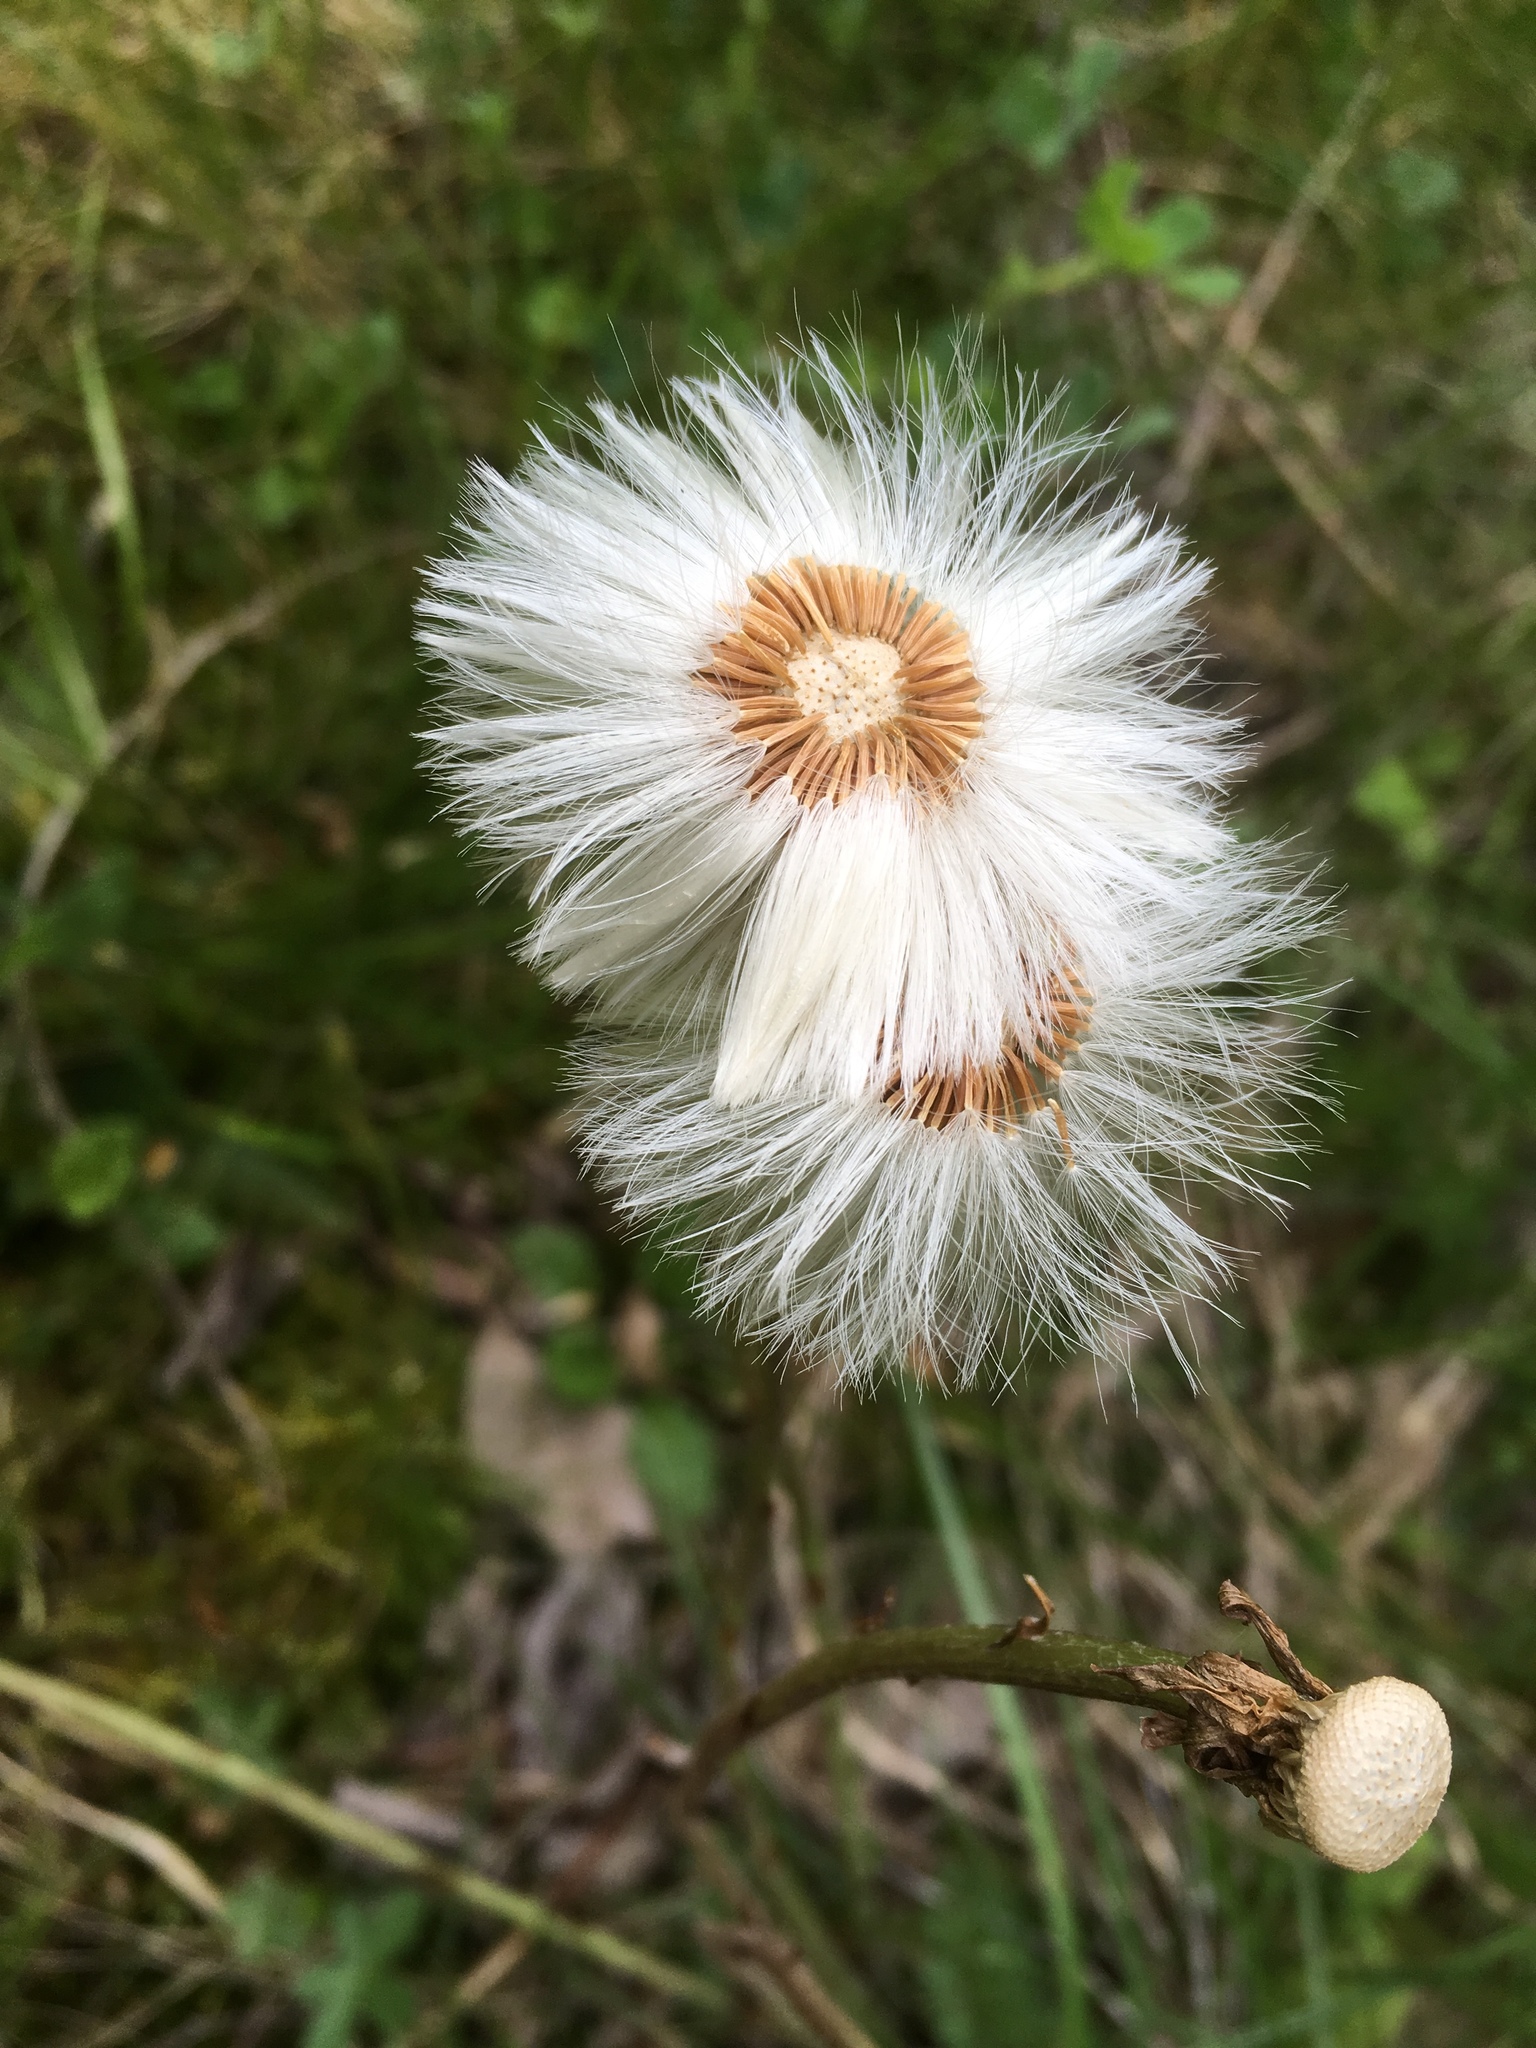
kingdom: Plantae
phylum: Tracheophyta
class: Magnoliopsida
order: Asterales
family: Asteraceae
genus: Tussilago
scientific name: Tussilago farfara
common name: Coltsfoot
